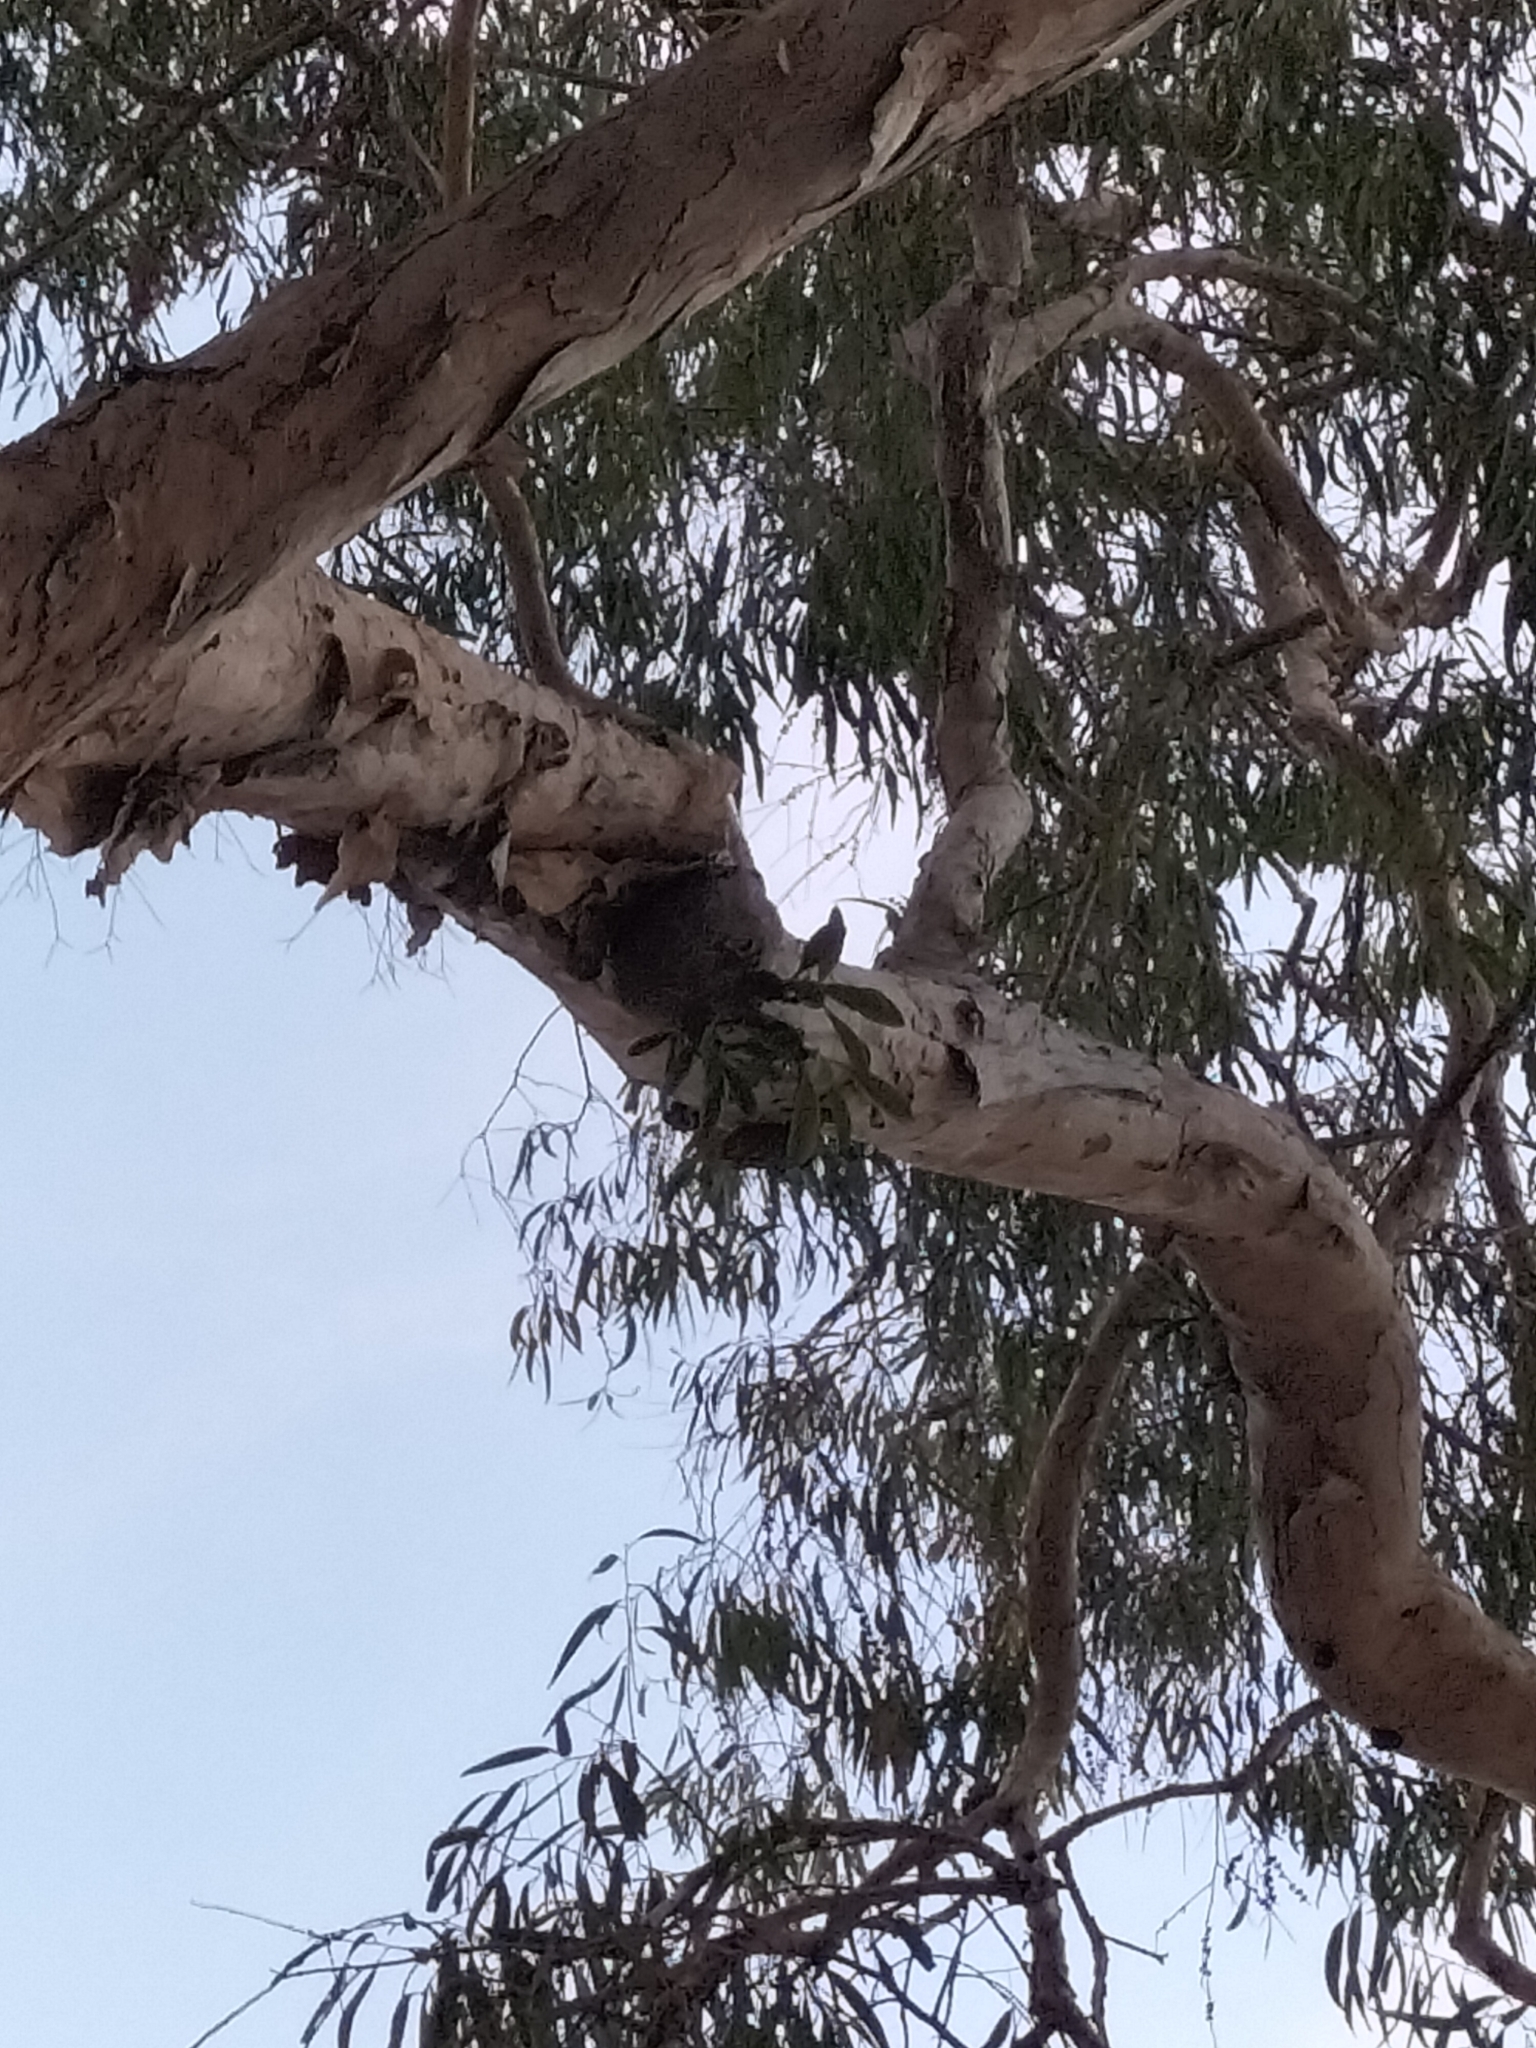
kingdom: Plantae
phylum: Tracheophyta
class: Magnoliopsida
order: Gentianales
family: Rubiaceae
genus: Myrmecodia
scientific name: Myrmecodia beccarii
